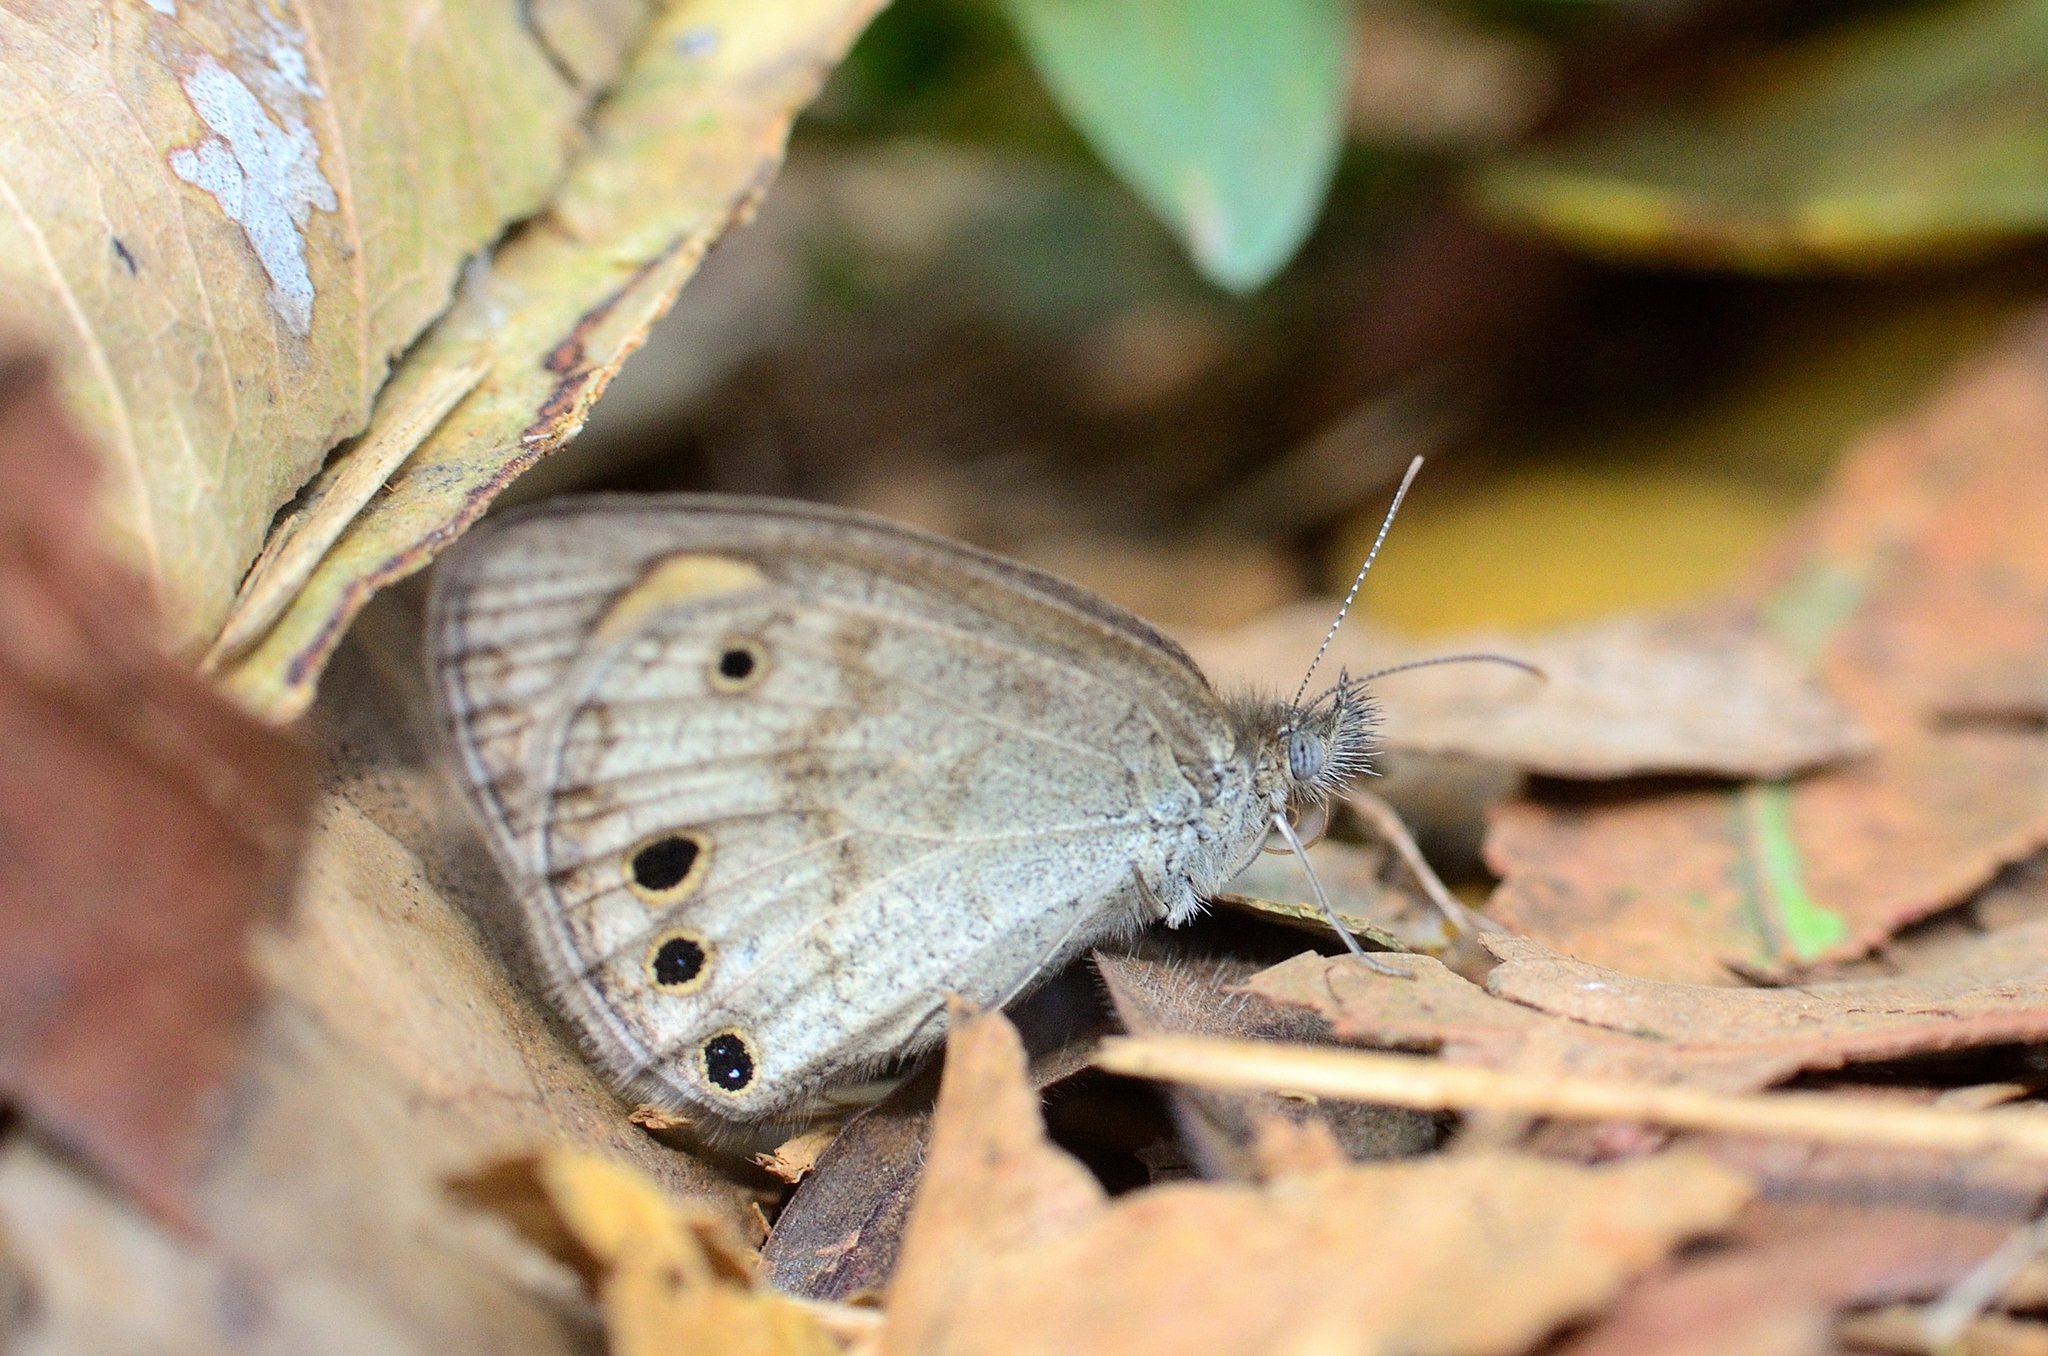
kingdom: Animalia
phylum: Arthropoda
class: Insecta
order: Lepidoptera
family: Nymphalidae
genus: Ypthima
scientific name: Ypthima huebneri
